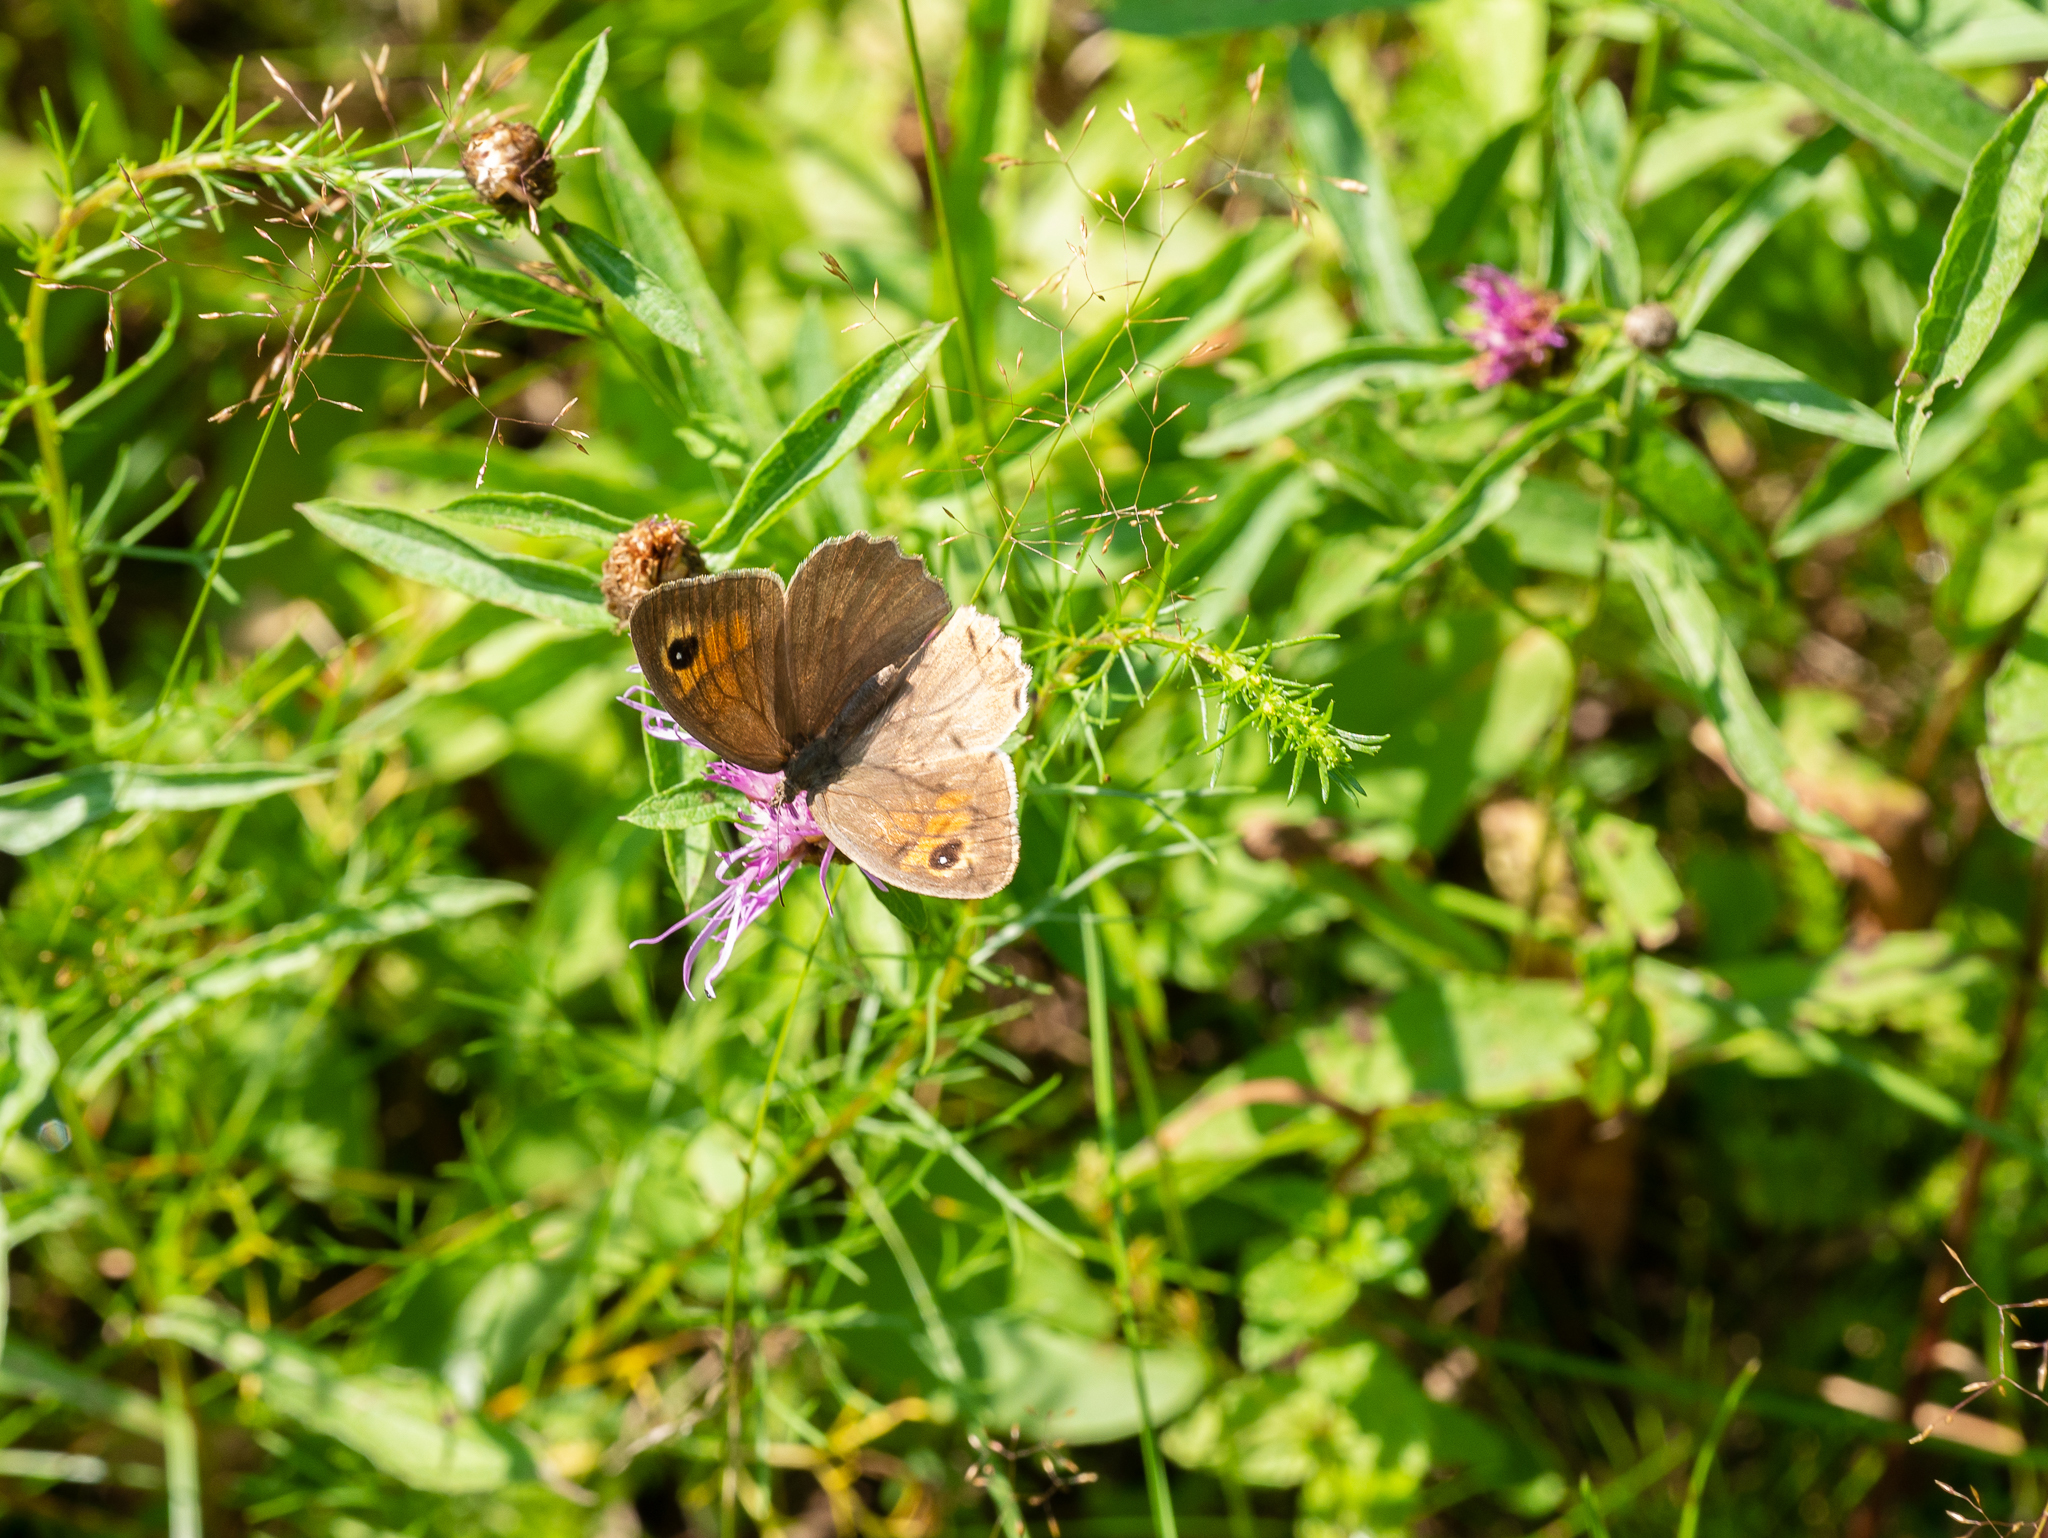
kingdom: Animalia
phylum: Arthropoda
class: Insecta
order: Lepidoptera
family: Nymphalidae
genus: Maniola
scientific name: Maniola jurtina
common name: Meadow brown
